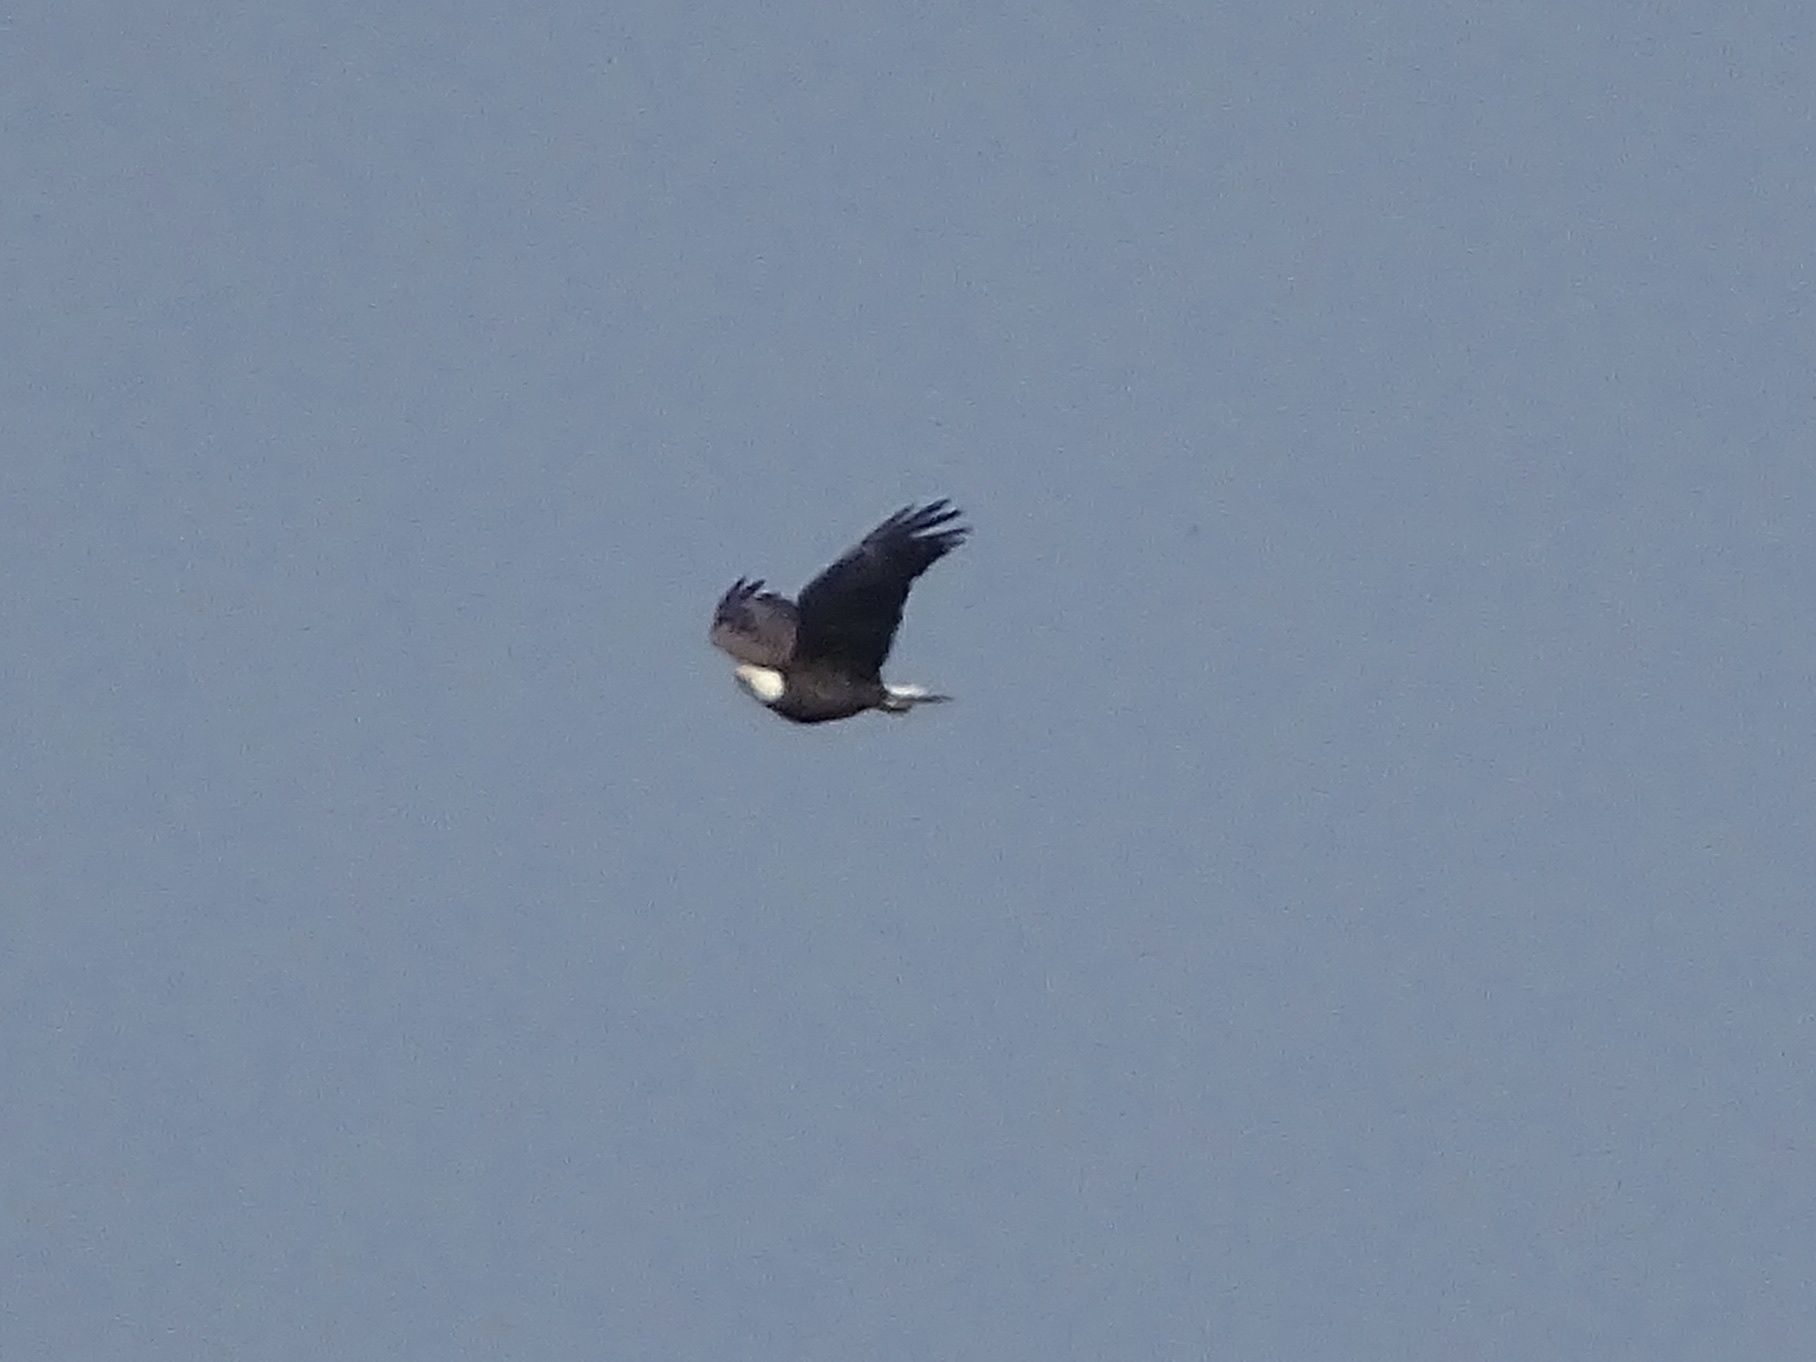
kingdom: Animalia
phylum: Chordata
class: Aves
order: Accipitriformes
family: Accipitridae
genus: Haliaeetus
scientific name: Haliaeetus leucocephalus
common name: Bald eagle
